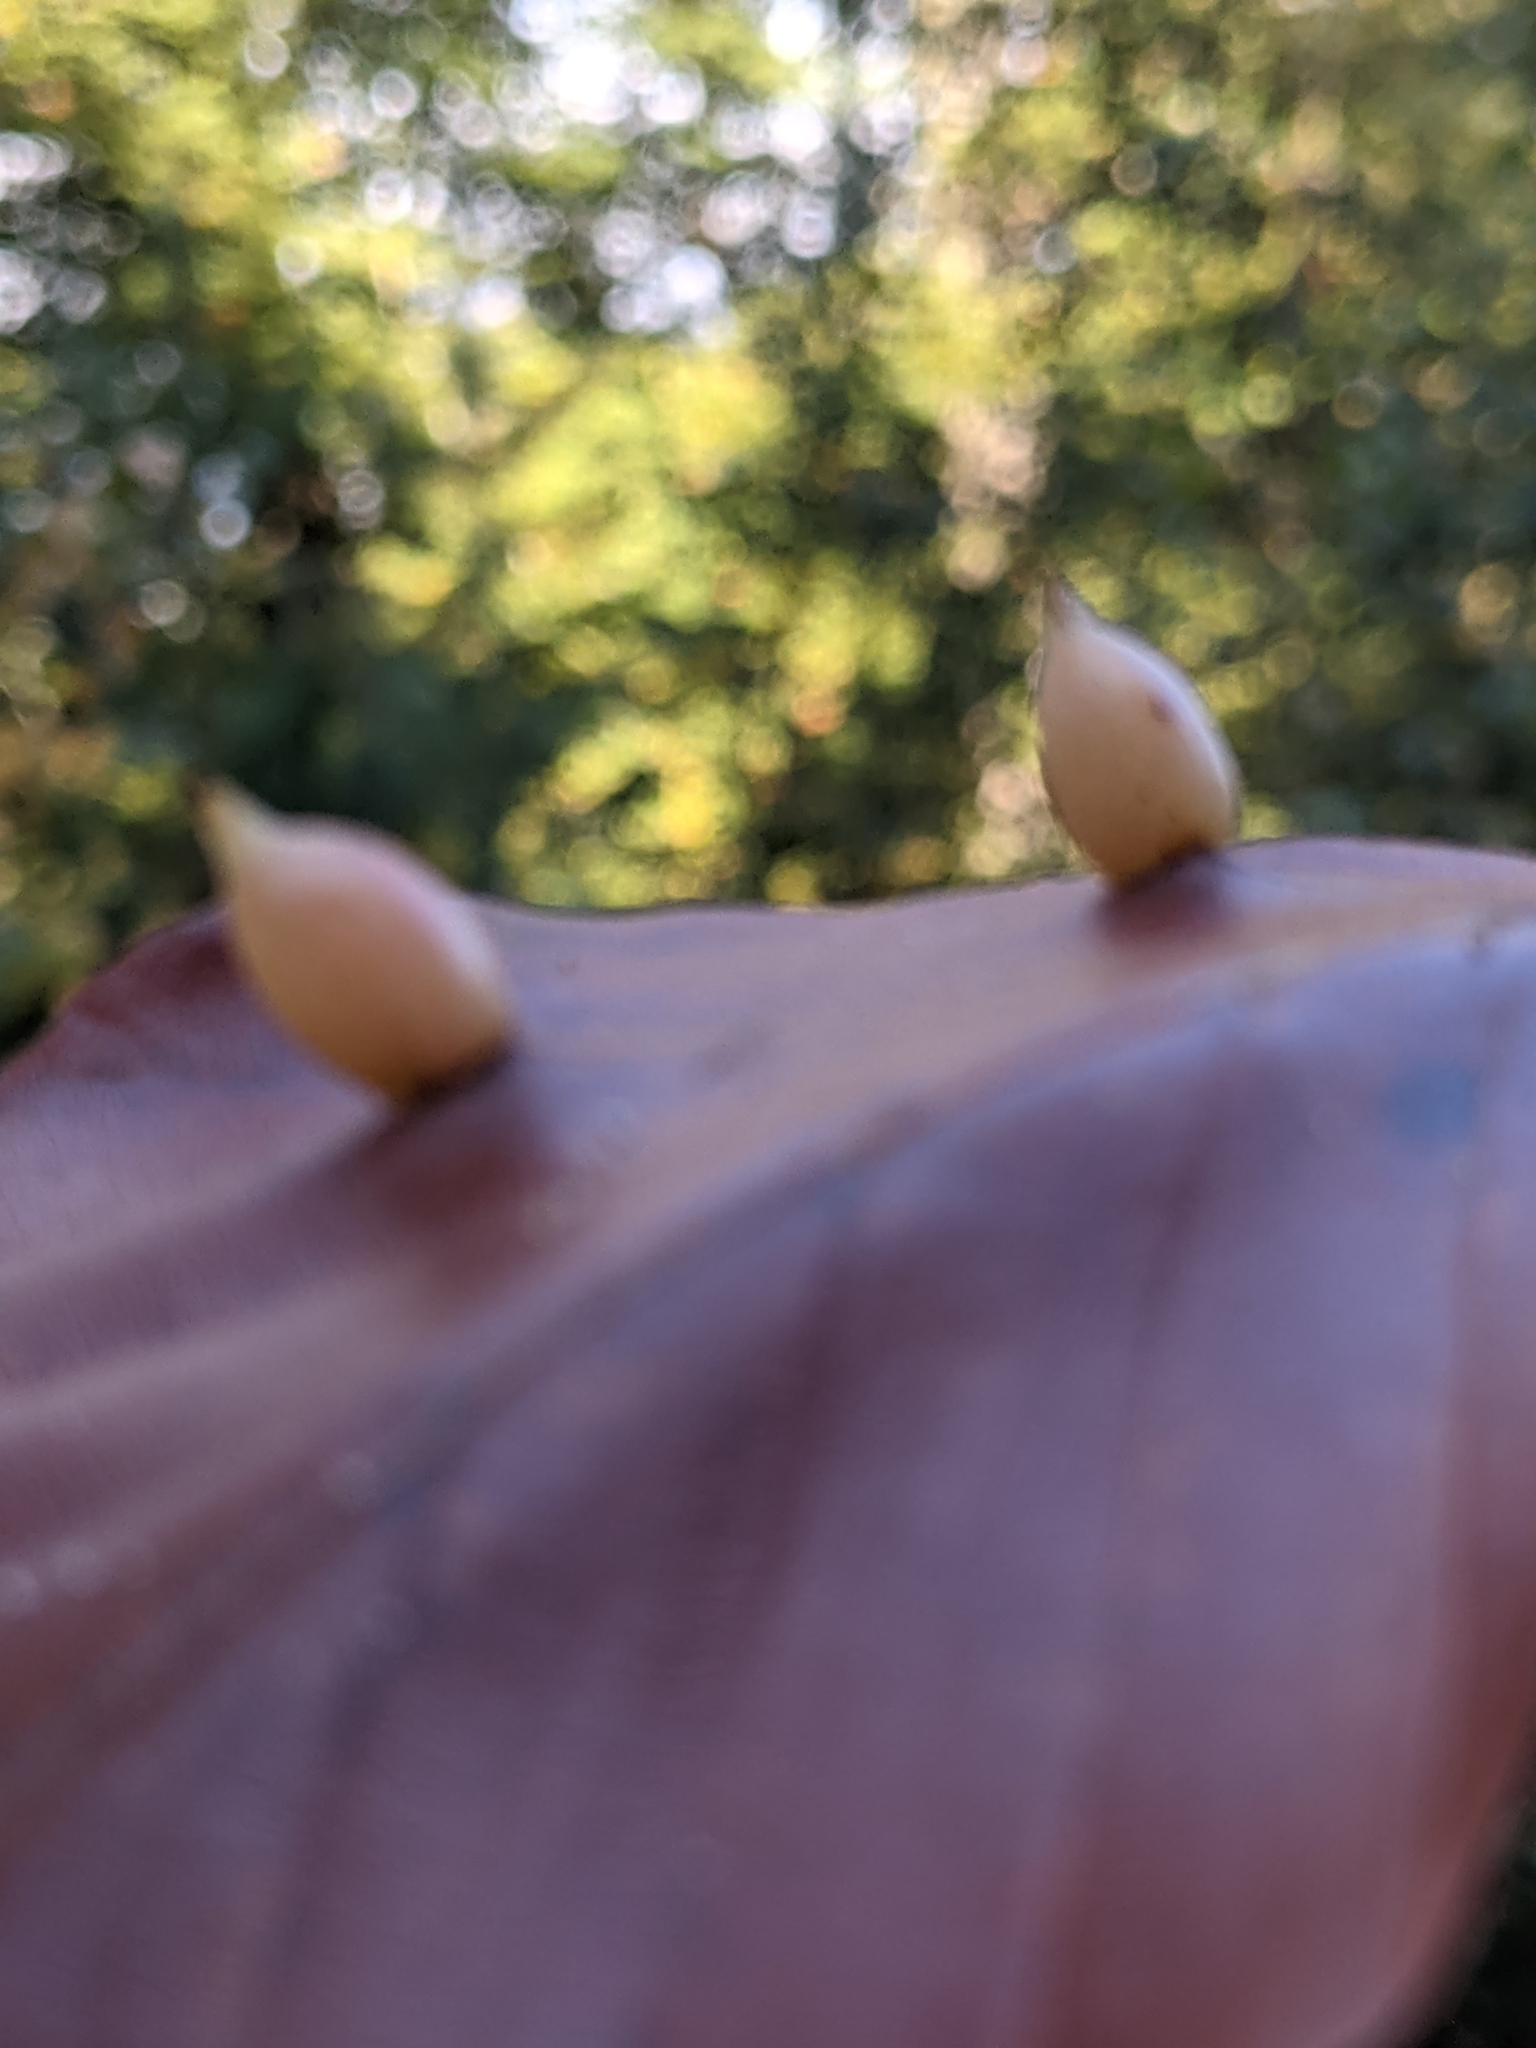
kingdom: Animalia
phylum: Arthropoda
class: Insecta
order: Diptera
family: Cecidomyiidae
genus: Mikiola
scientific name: Mikiola fagi
